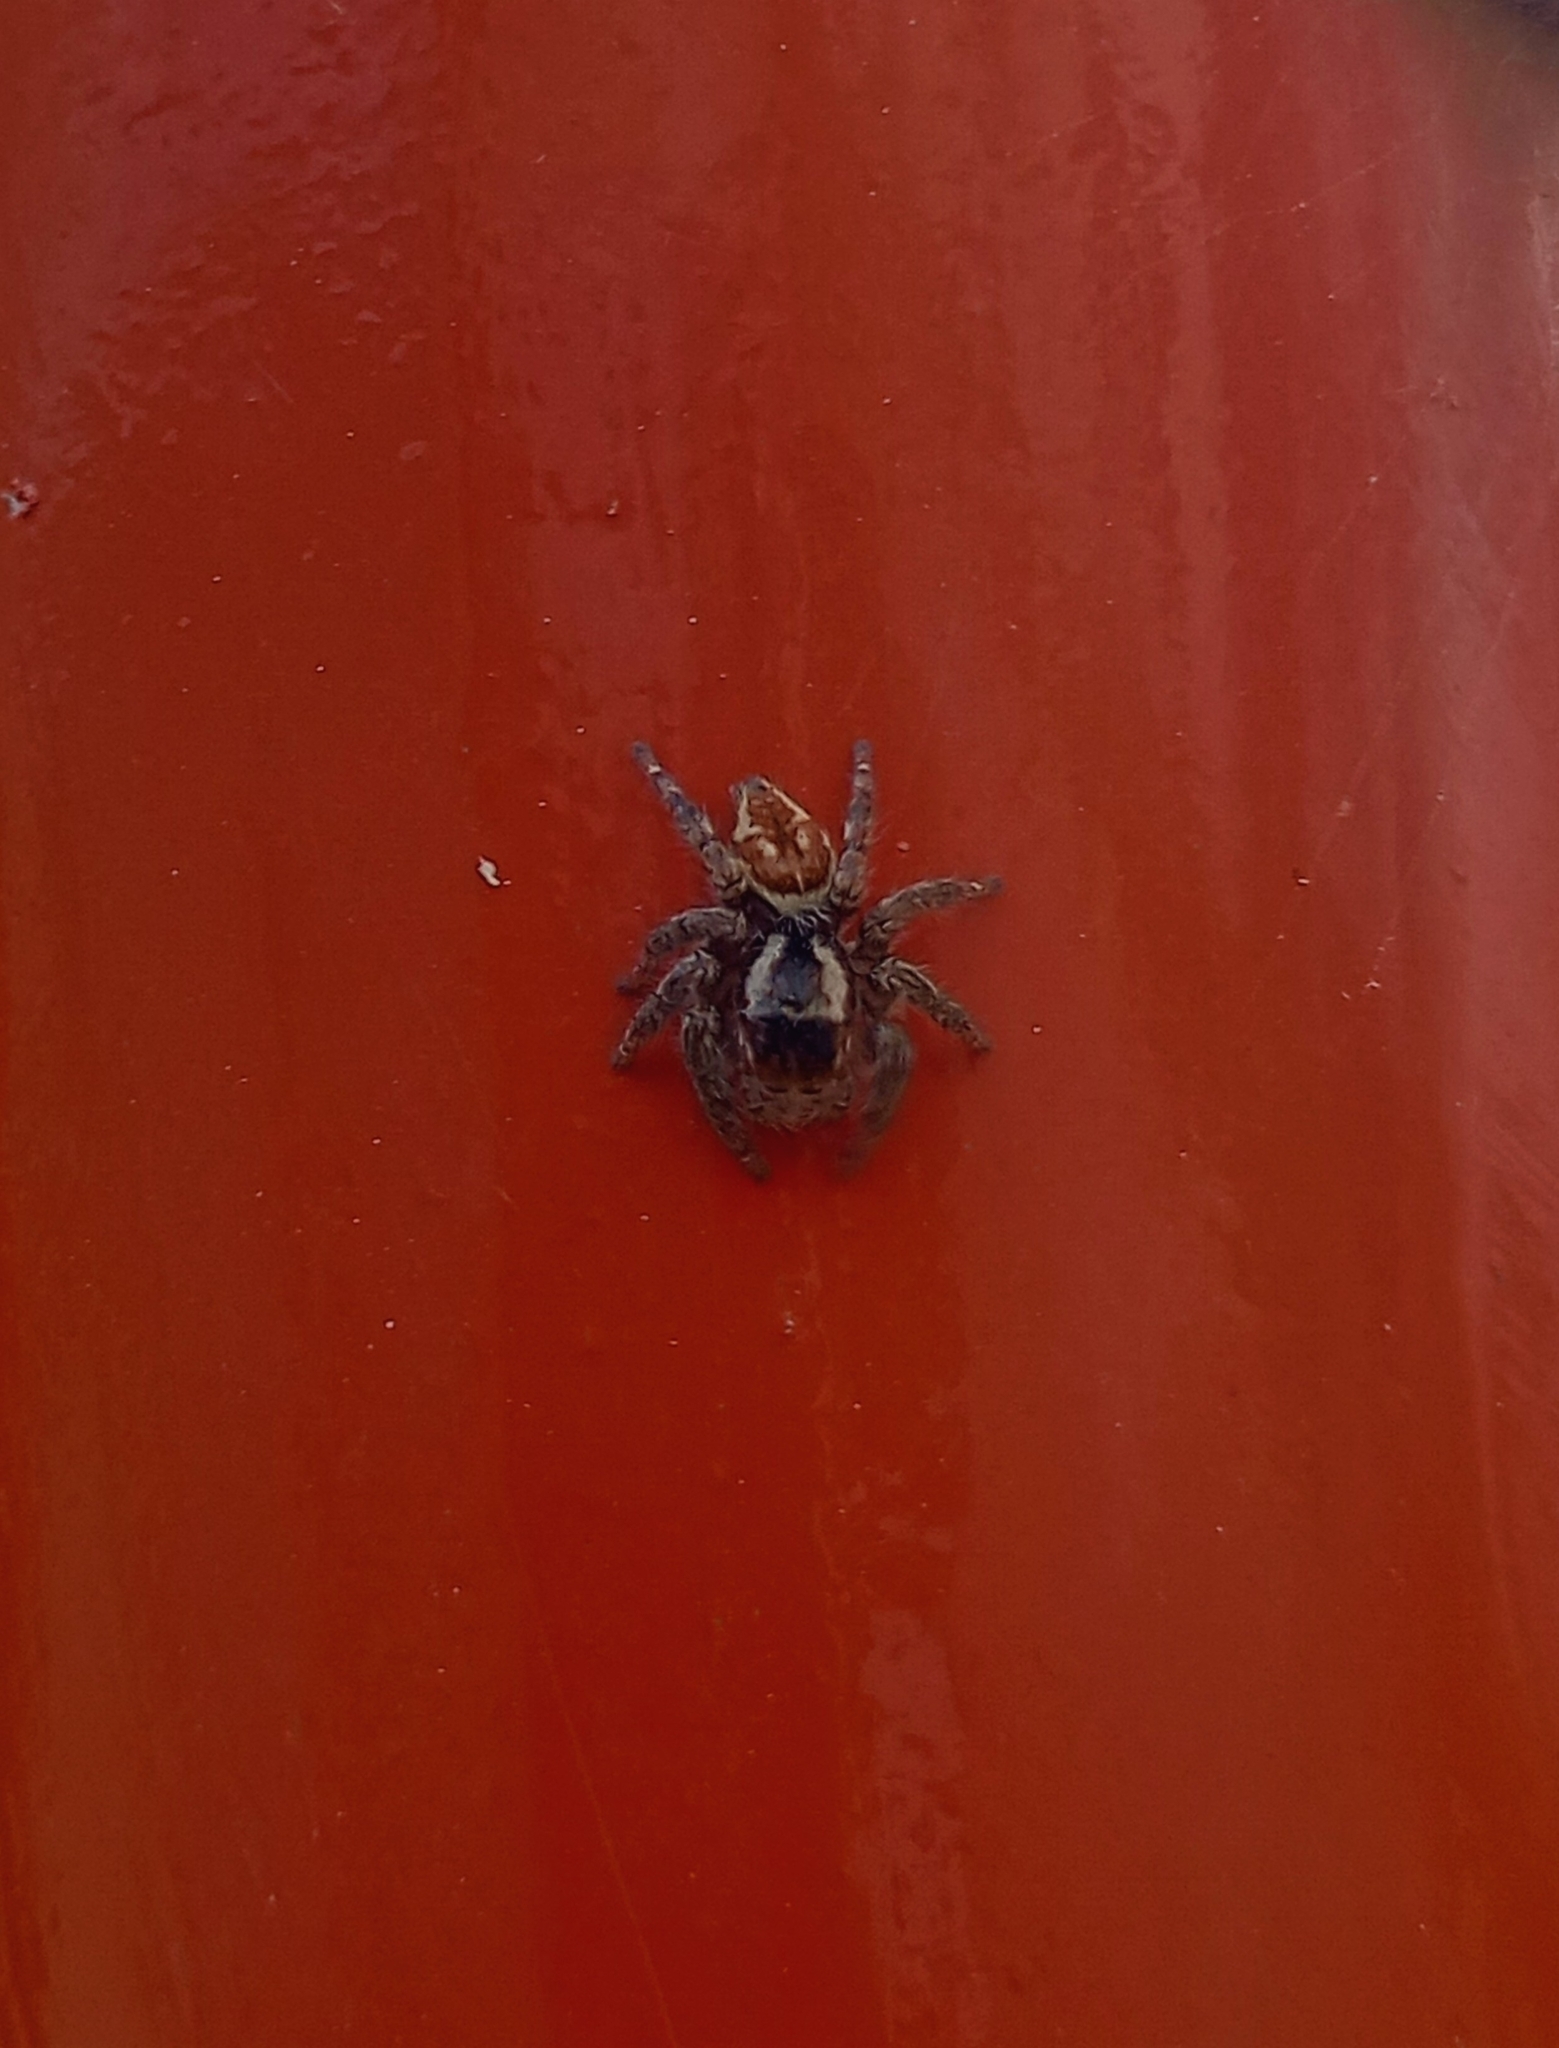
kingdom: Animalia
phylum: Arthropoda
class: Arachnida
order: Araneae
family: Salticidae
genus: Hasarius
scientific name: Hasarius adansoni
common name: Jumping spider
